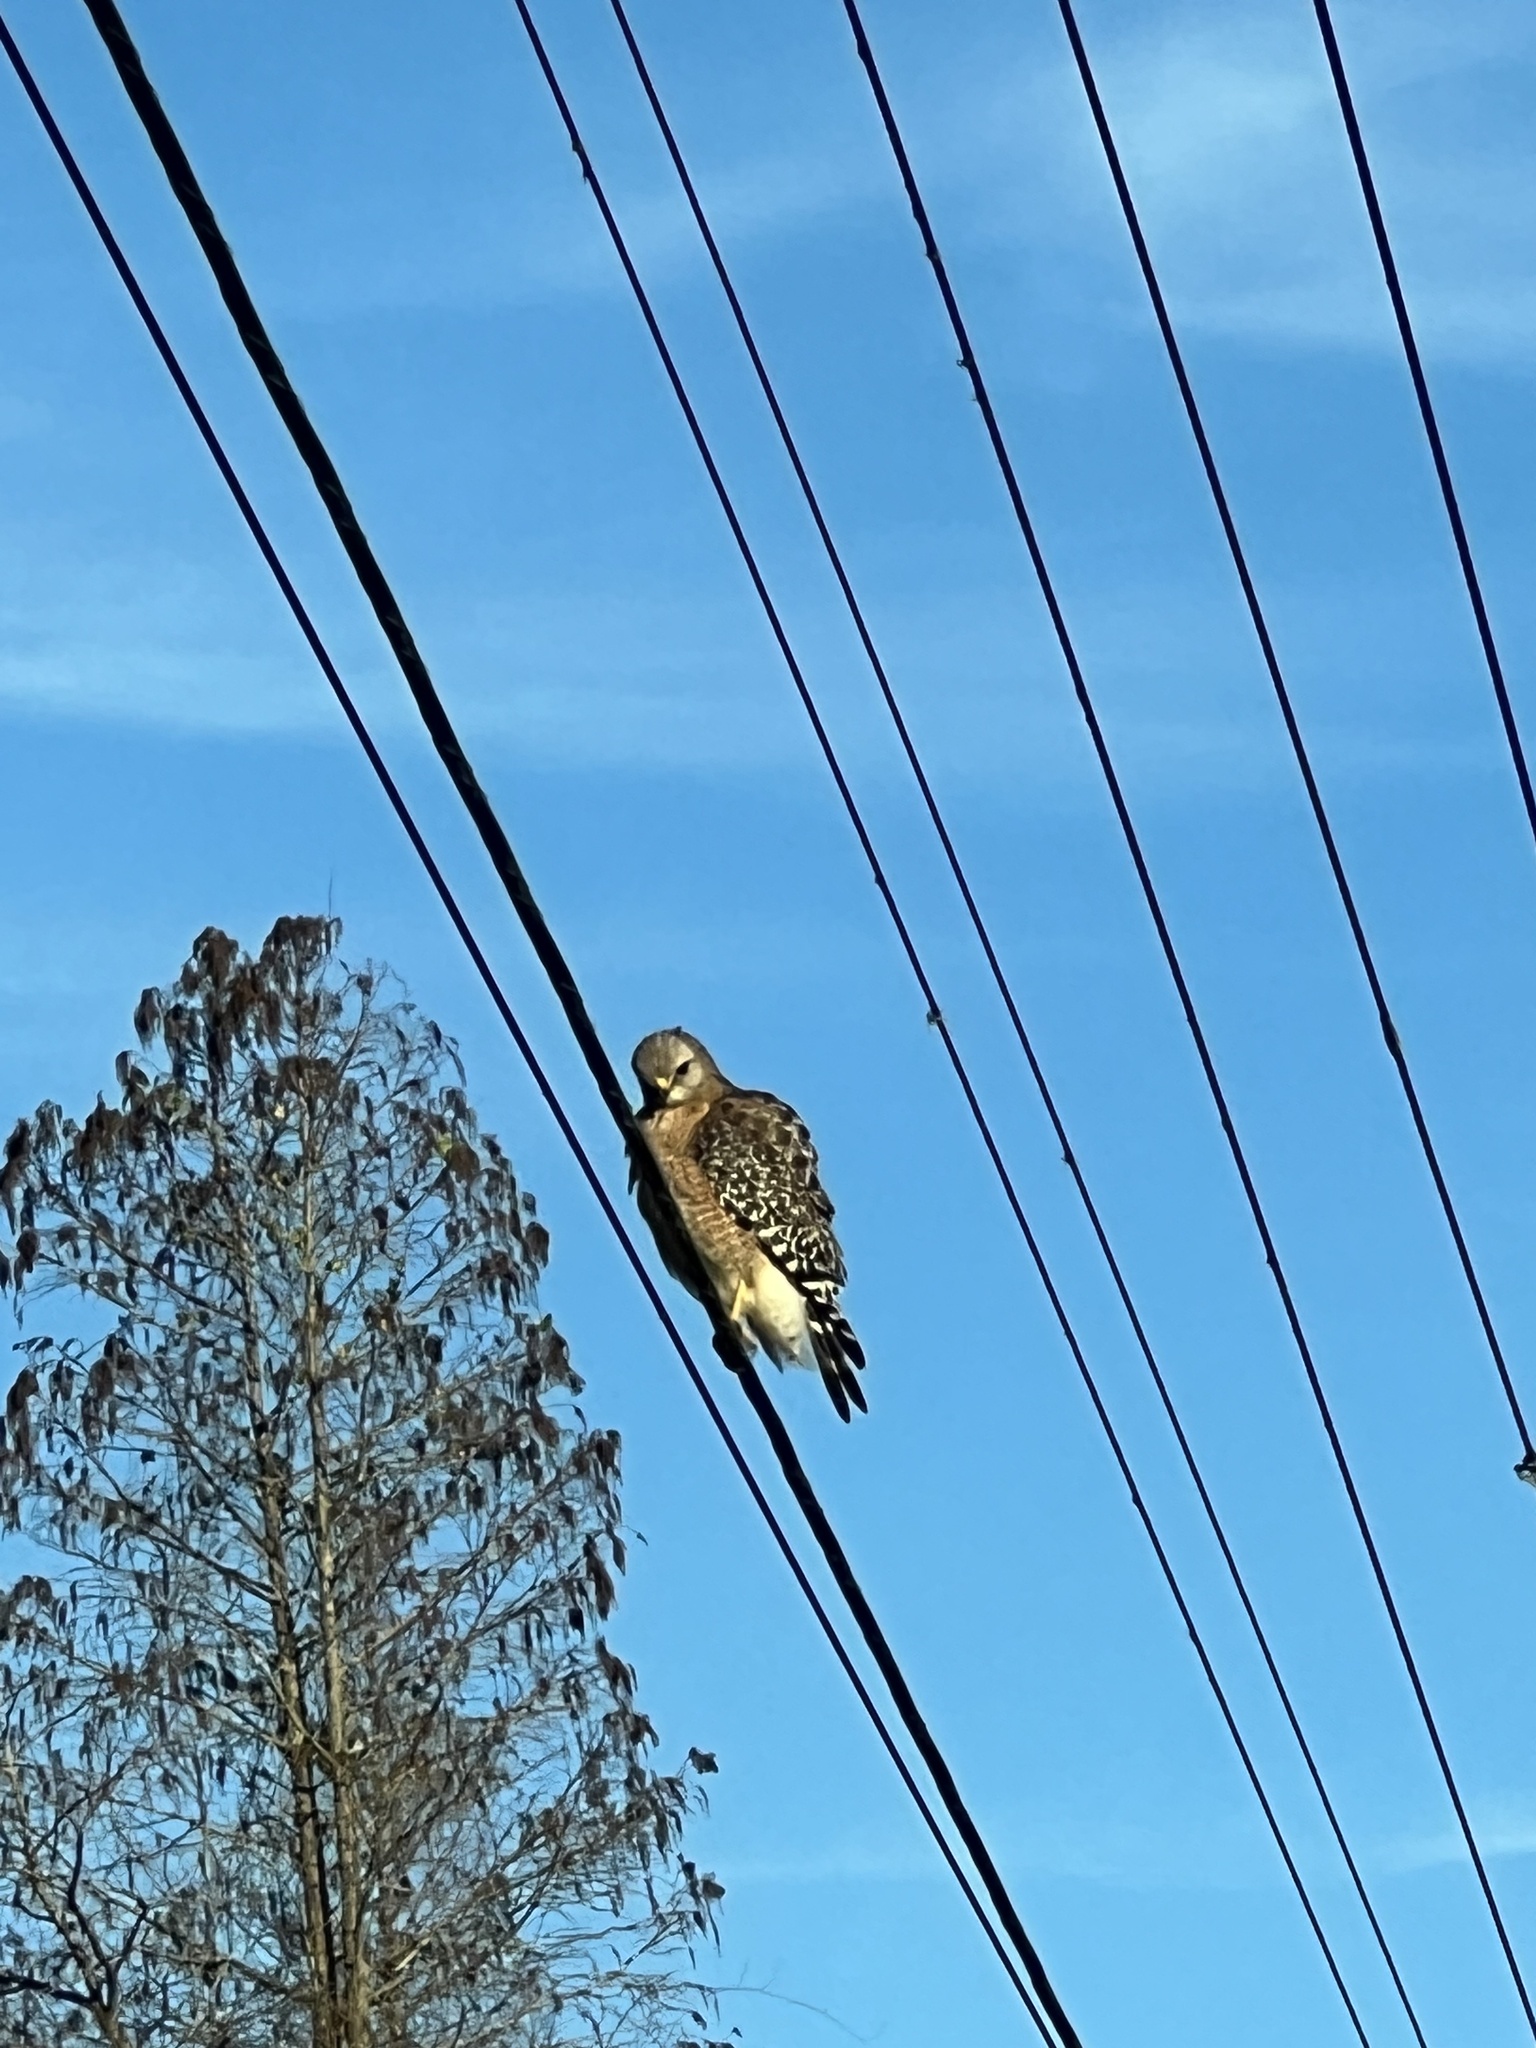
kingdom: Animalia
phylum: Chordata
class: Aves
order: Accipitriformes
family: Accipitridae
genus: Buteo
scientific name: Buteo lineatus
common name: Red-shouldered hawk
